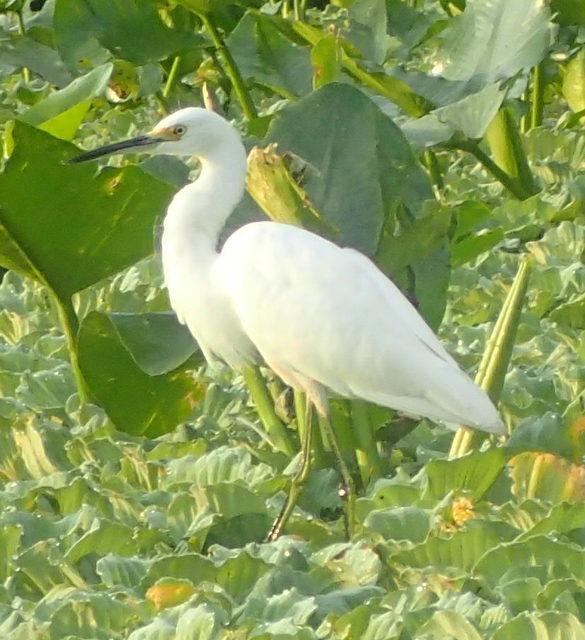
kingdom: Animalia
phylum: Chordata
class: Aves
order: Pelecaniformes
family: Ardeidae
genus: Egretta
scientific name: Egretta thula
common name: Snowy egret
